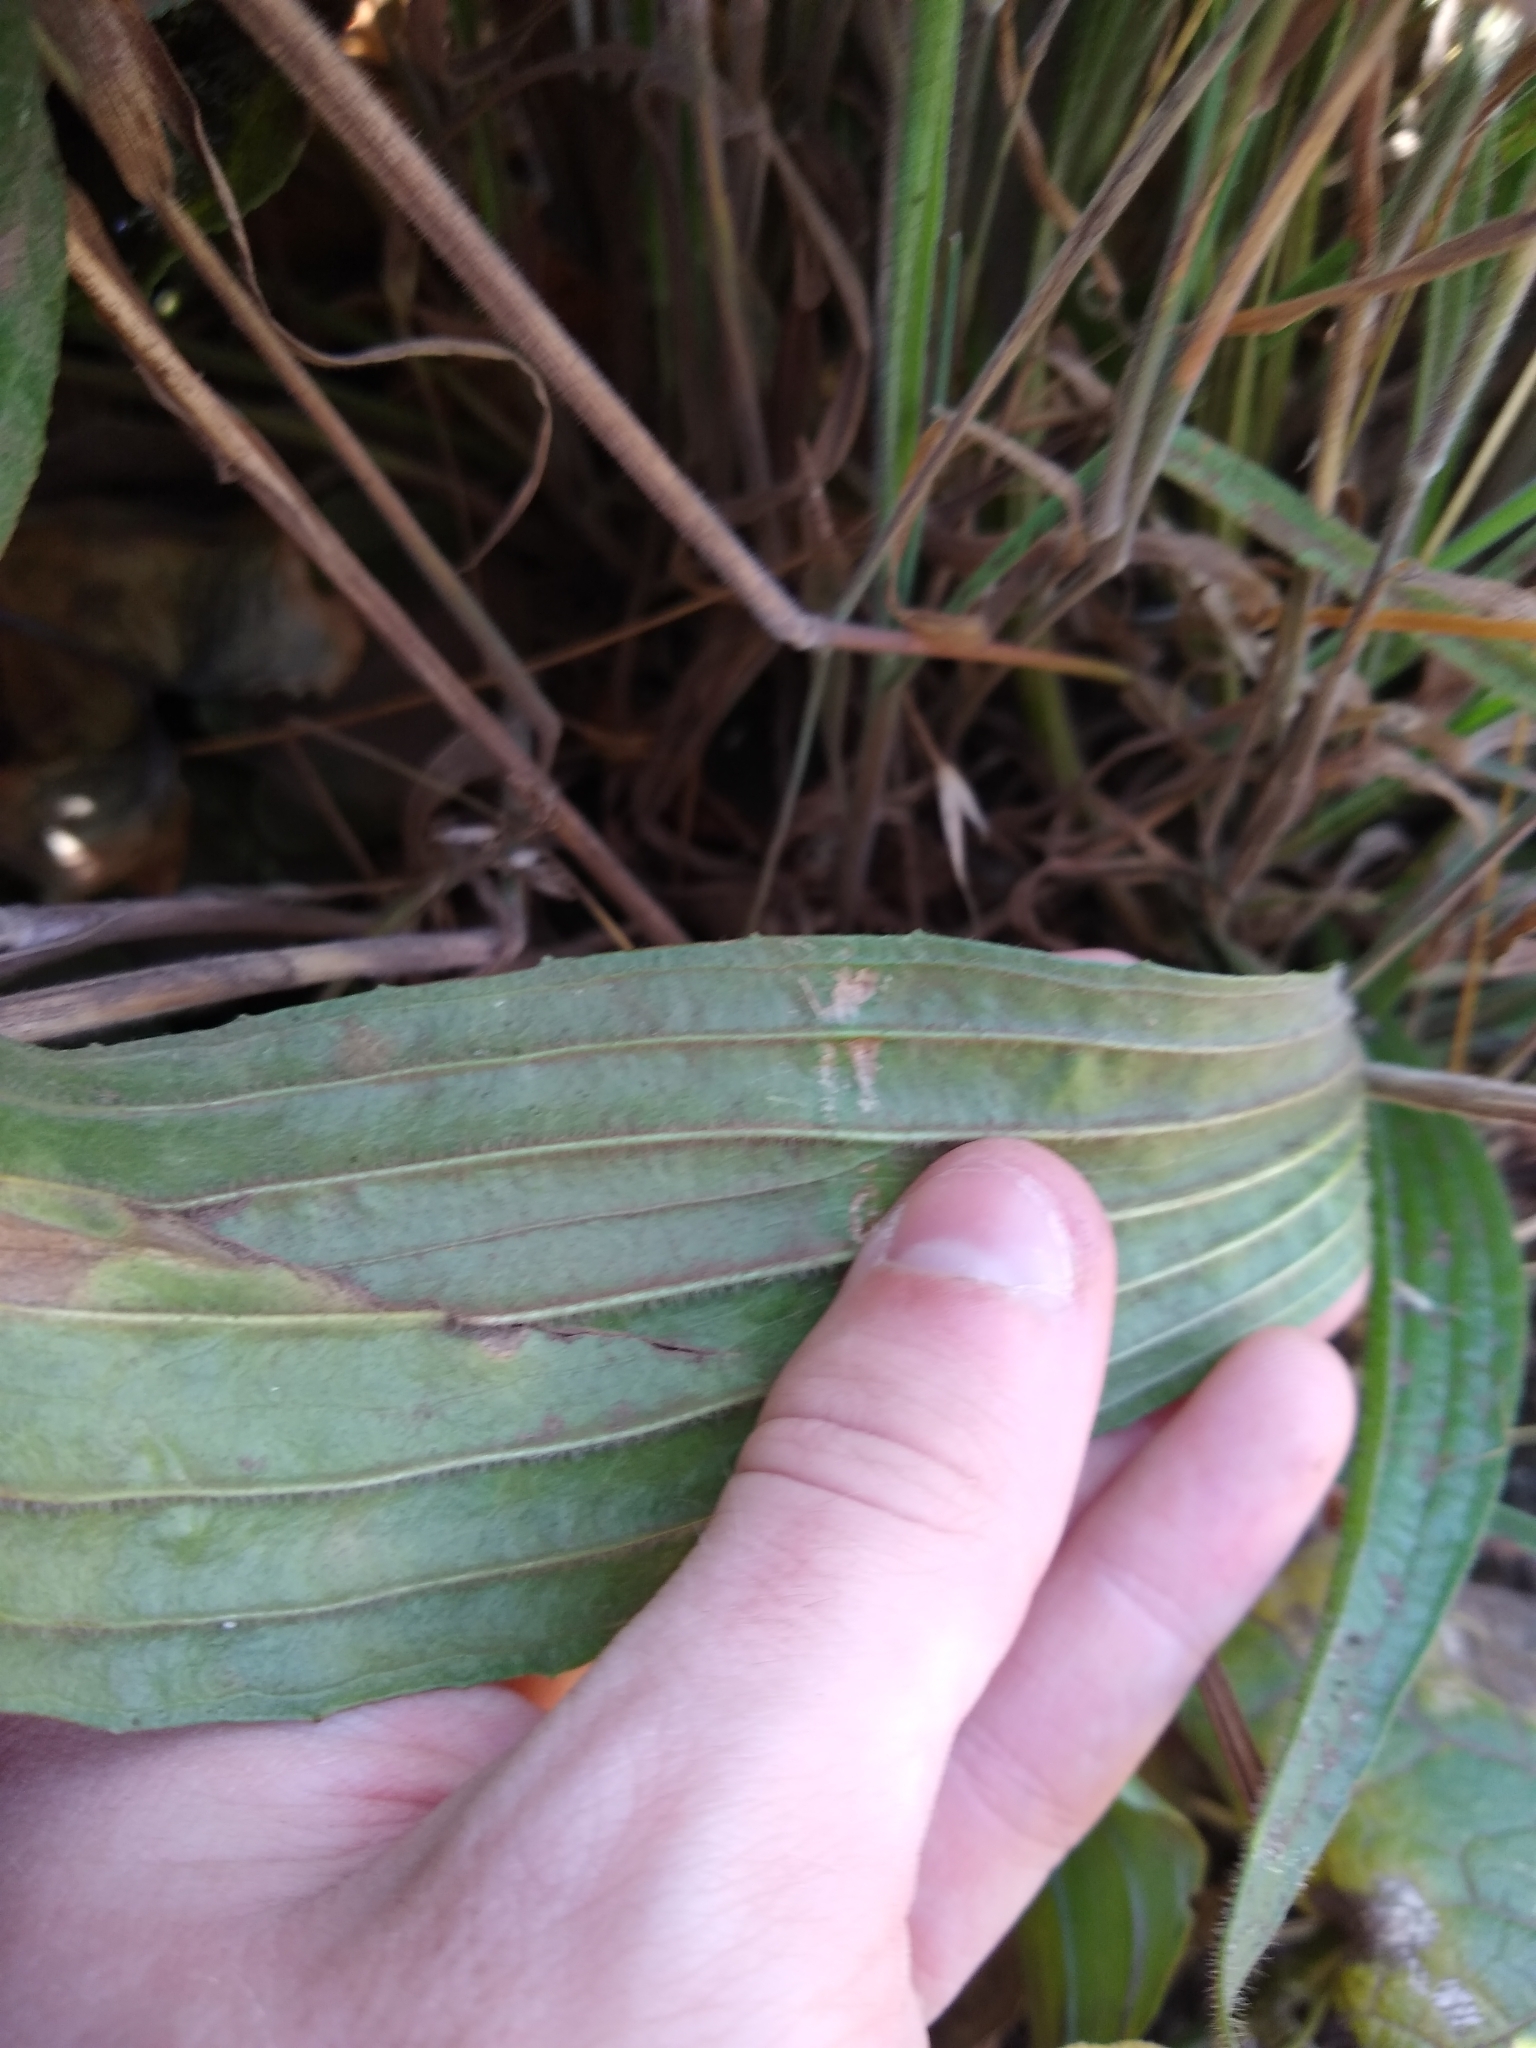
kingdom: Plantae
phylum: Tracheophyta
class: Magnoliopsida
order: Lamiales
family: Plantaginaceae
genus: Plantago
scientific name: Plantago lanceolata
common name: Ribwort plantain
